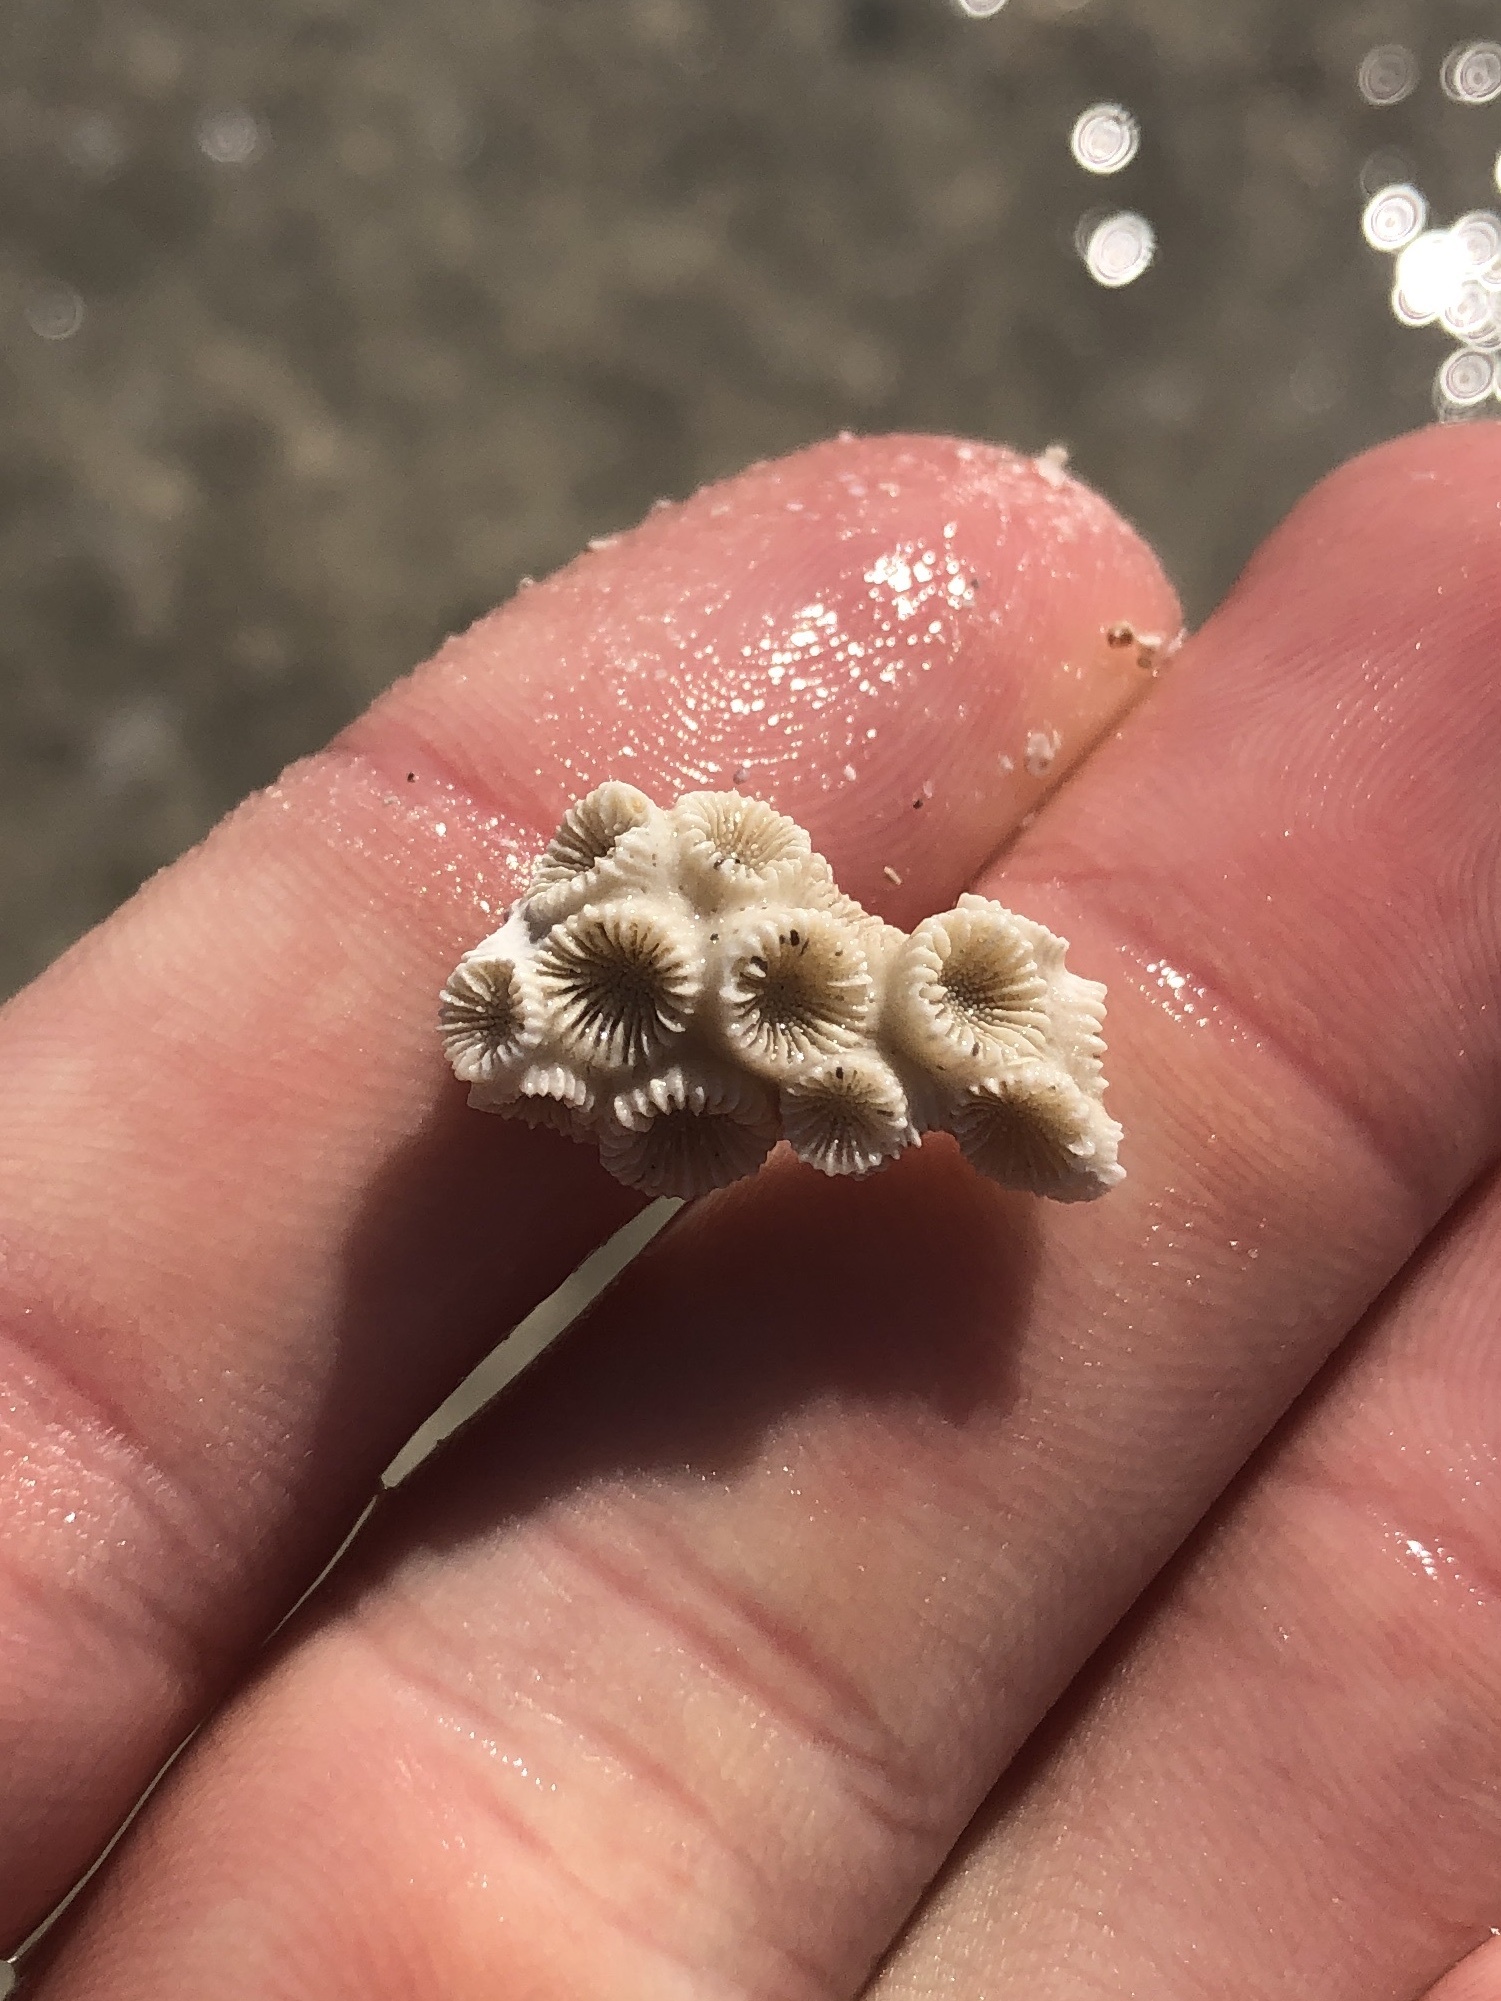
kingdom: Animalia
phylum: Cnidaria
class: Anthozoa
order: Scleractinia
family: Astrangiidae
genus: Astrangia
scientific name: Astrangia poculata
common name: Northern star coral
